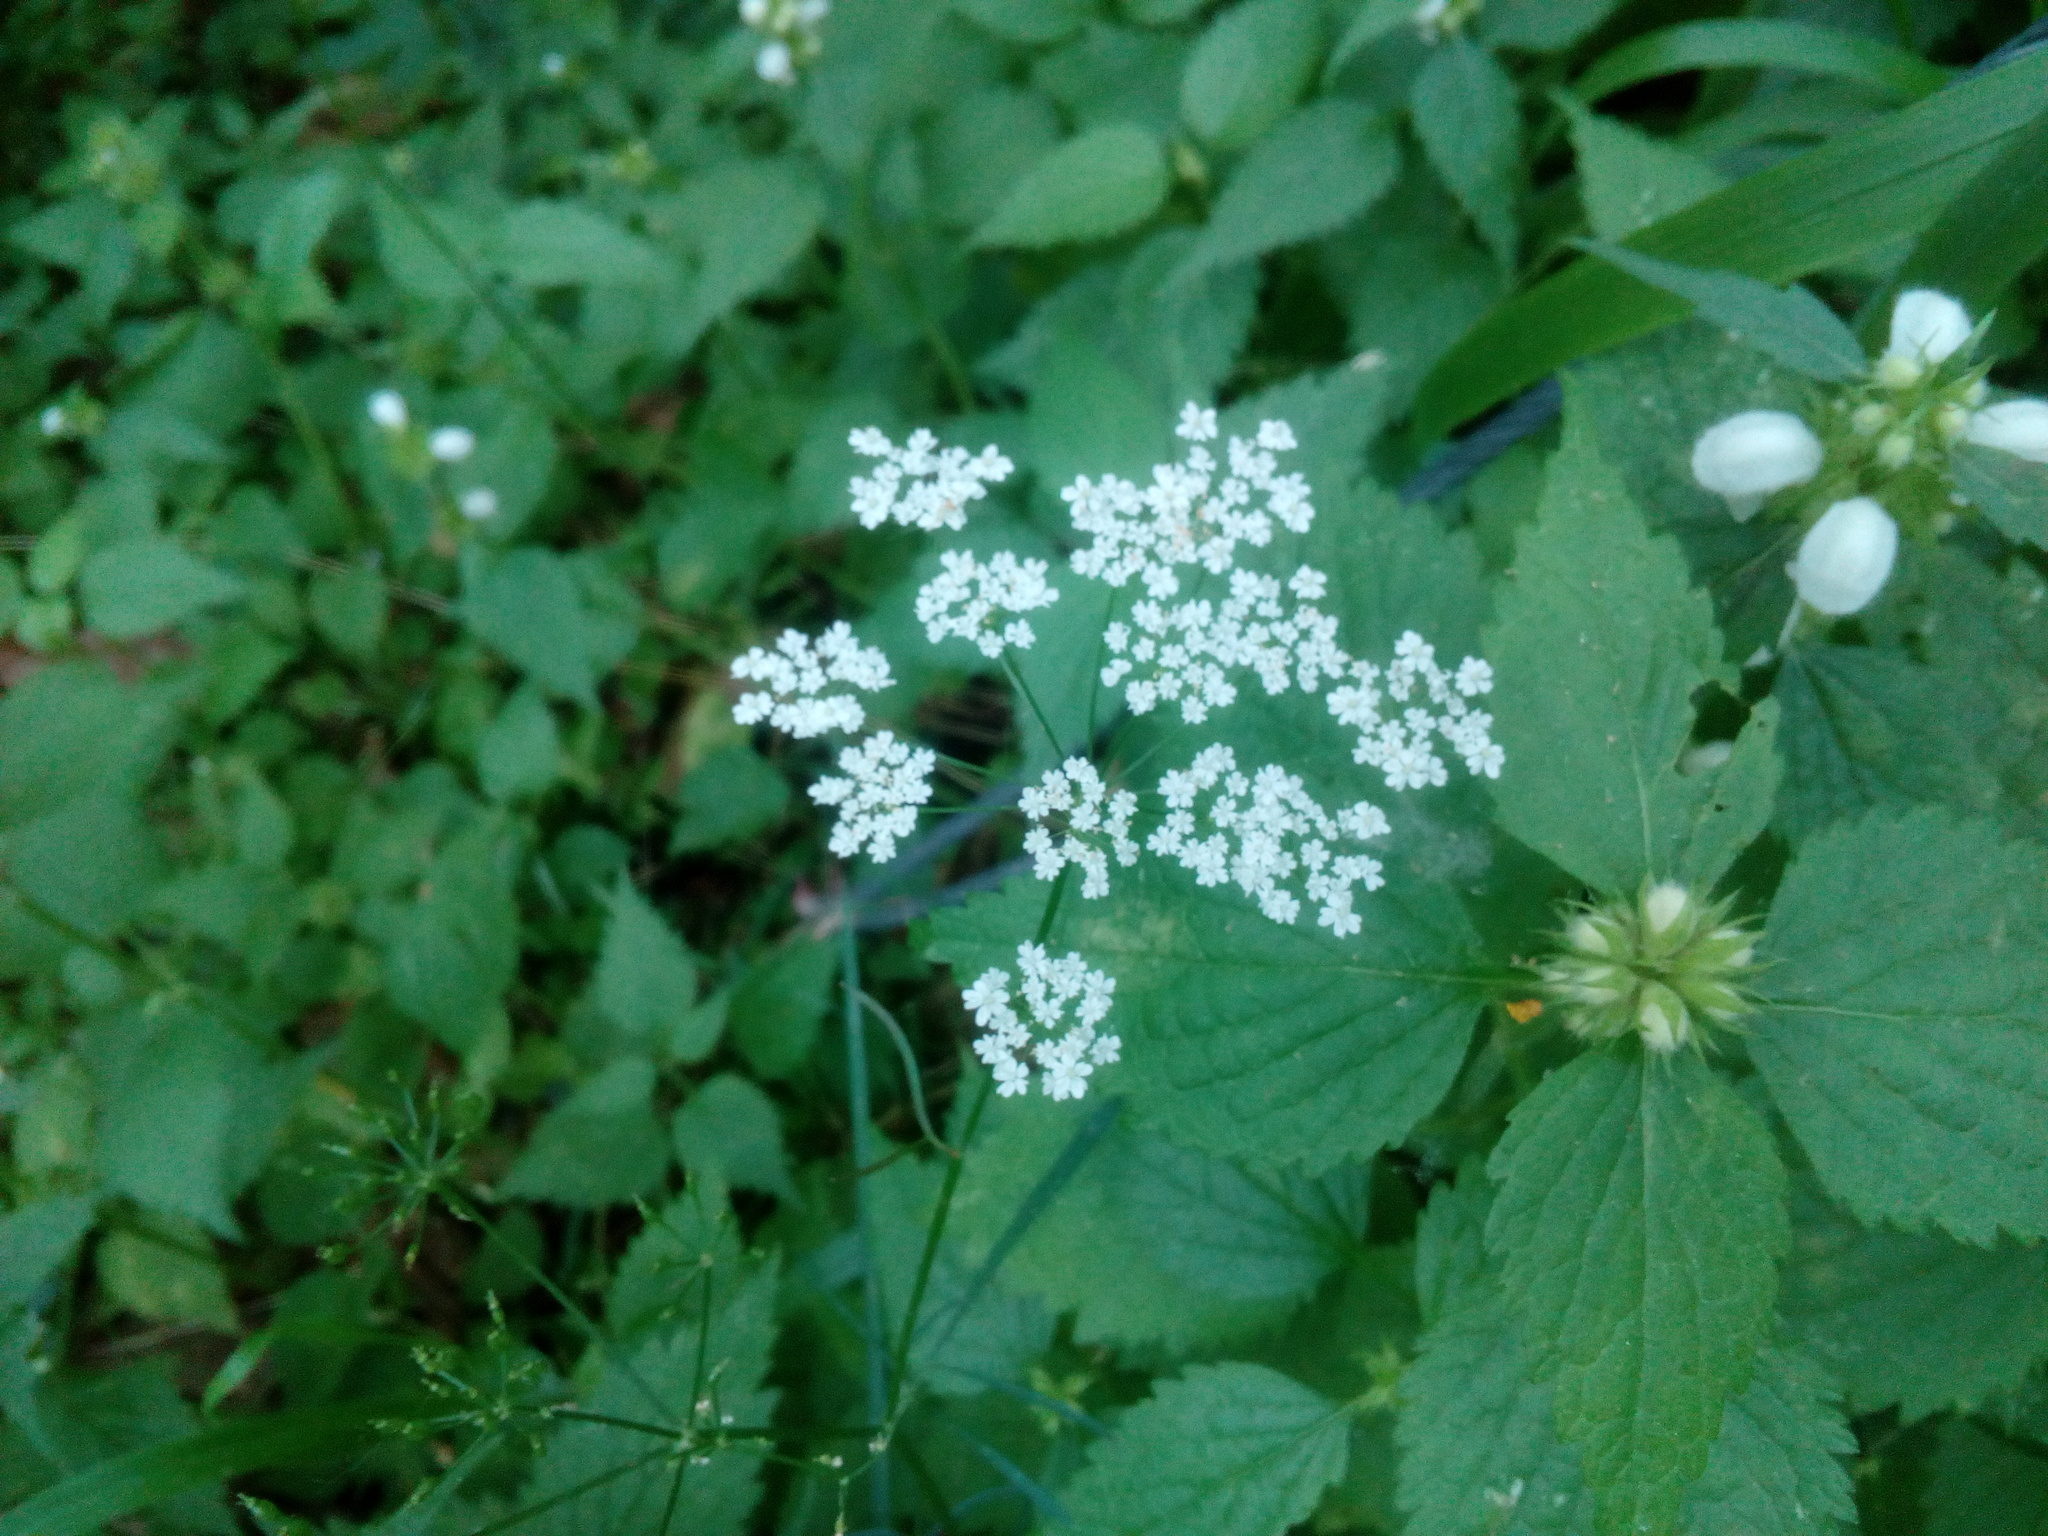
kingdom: Plantae
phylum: Tracheophyta
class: Magnoliopsida
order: Apiales
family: Apiaceae
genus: Conopodium
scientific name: Conopodium majus
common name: Pignut
